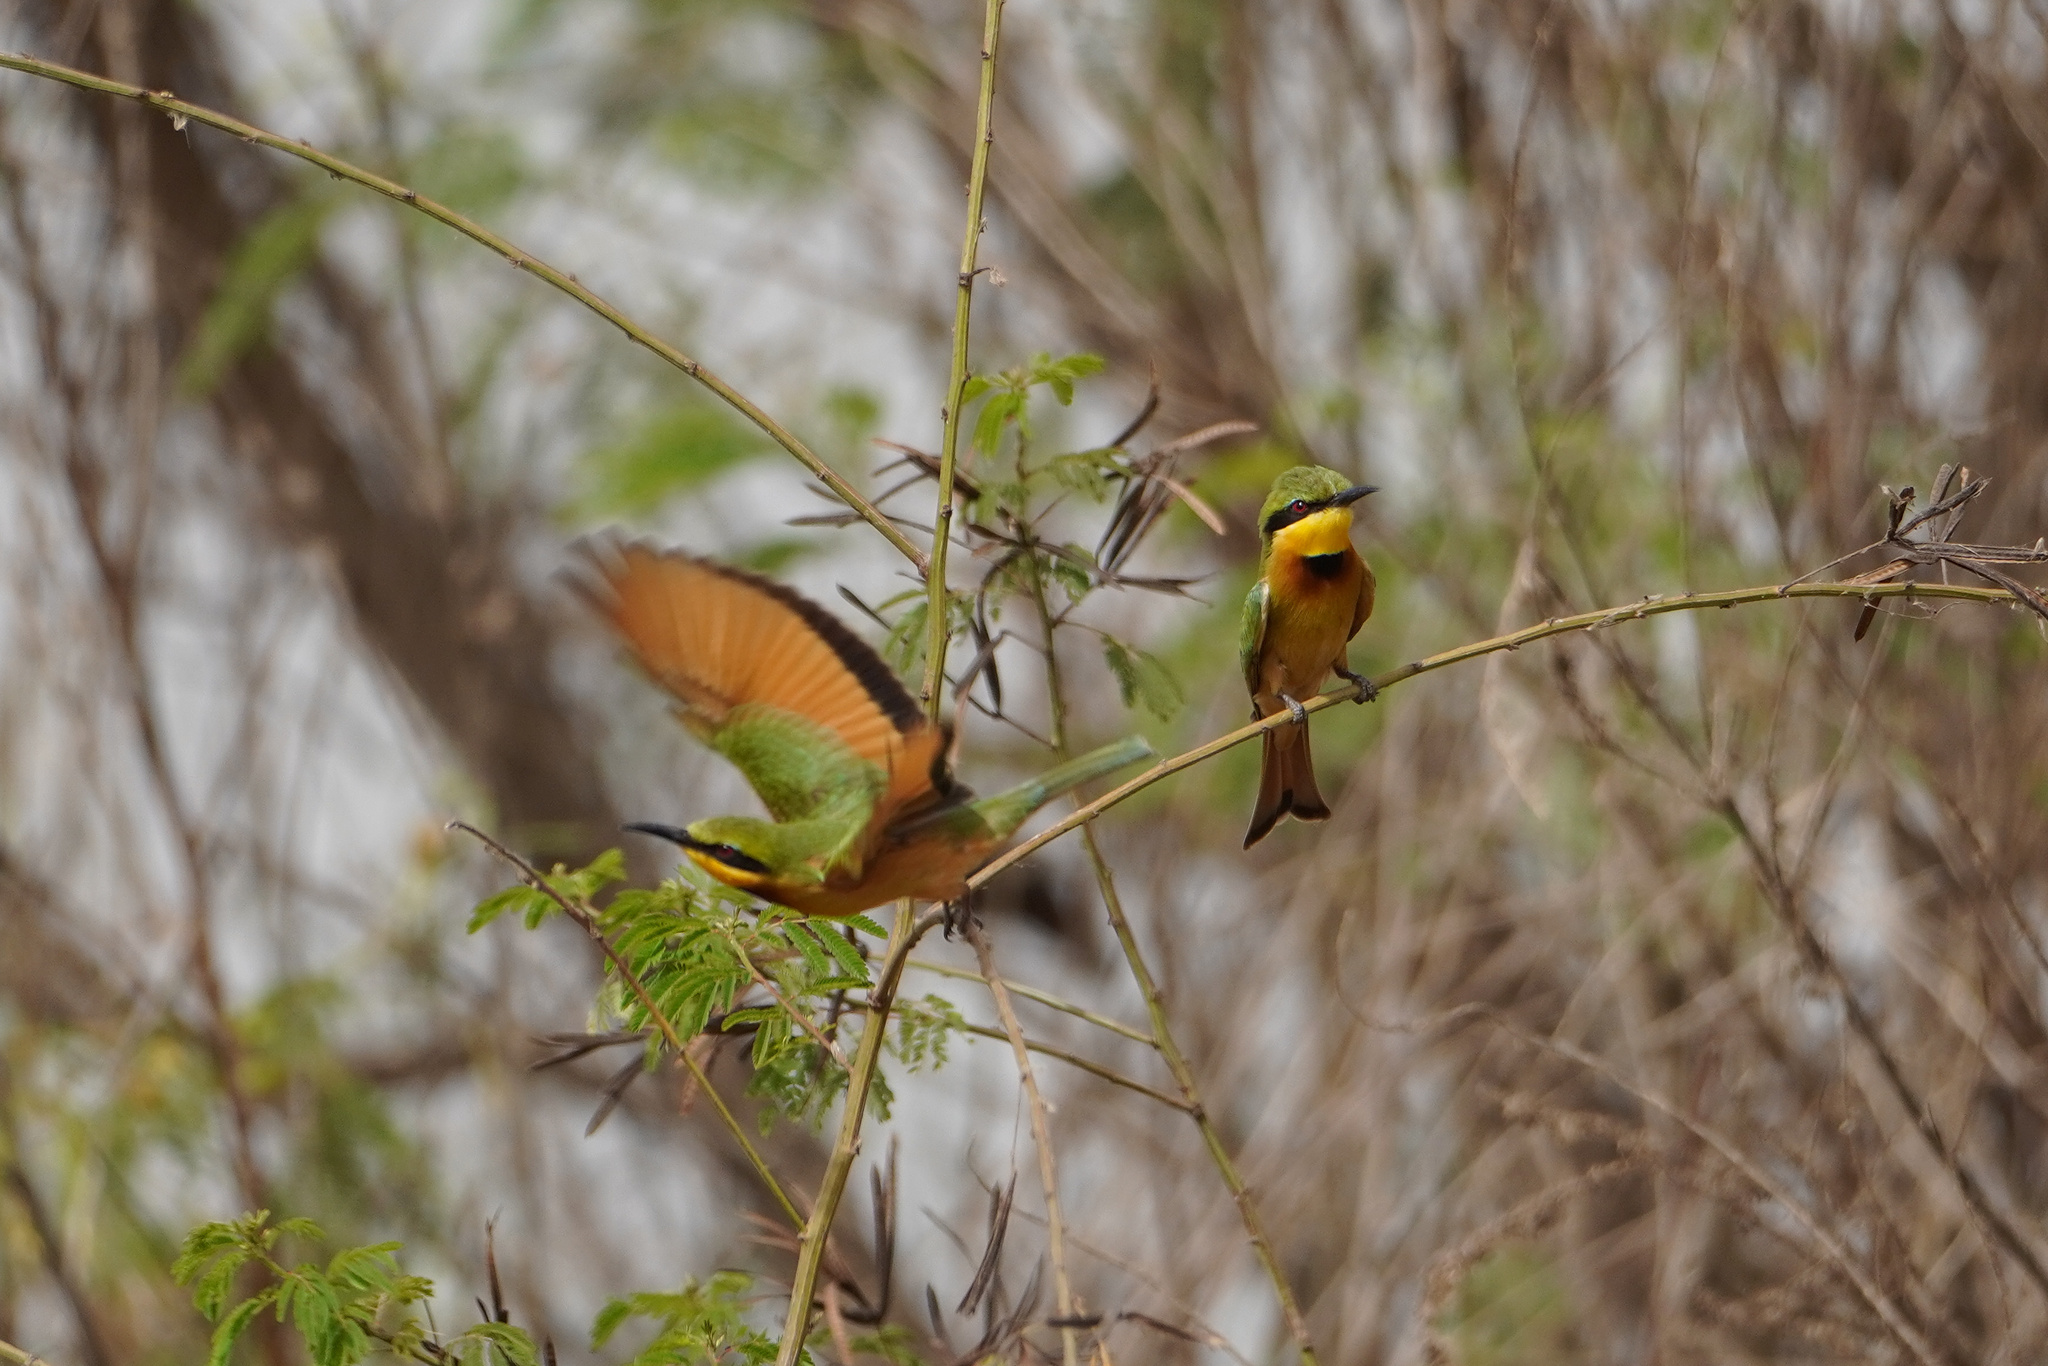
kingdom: Animalia
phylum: Chordata
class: Aves
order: Coraciiformes
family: Meropidae
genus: Merops
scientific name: Merops pusillus
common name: Little bee-eater
